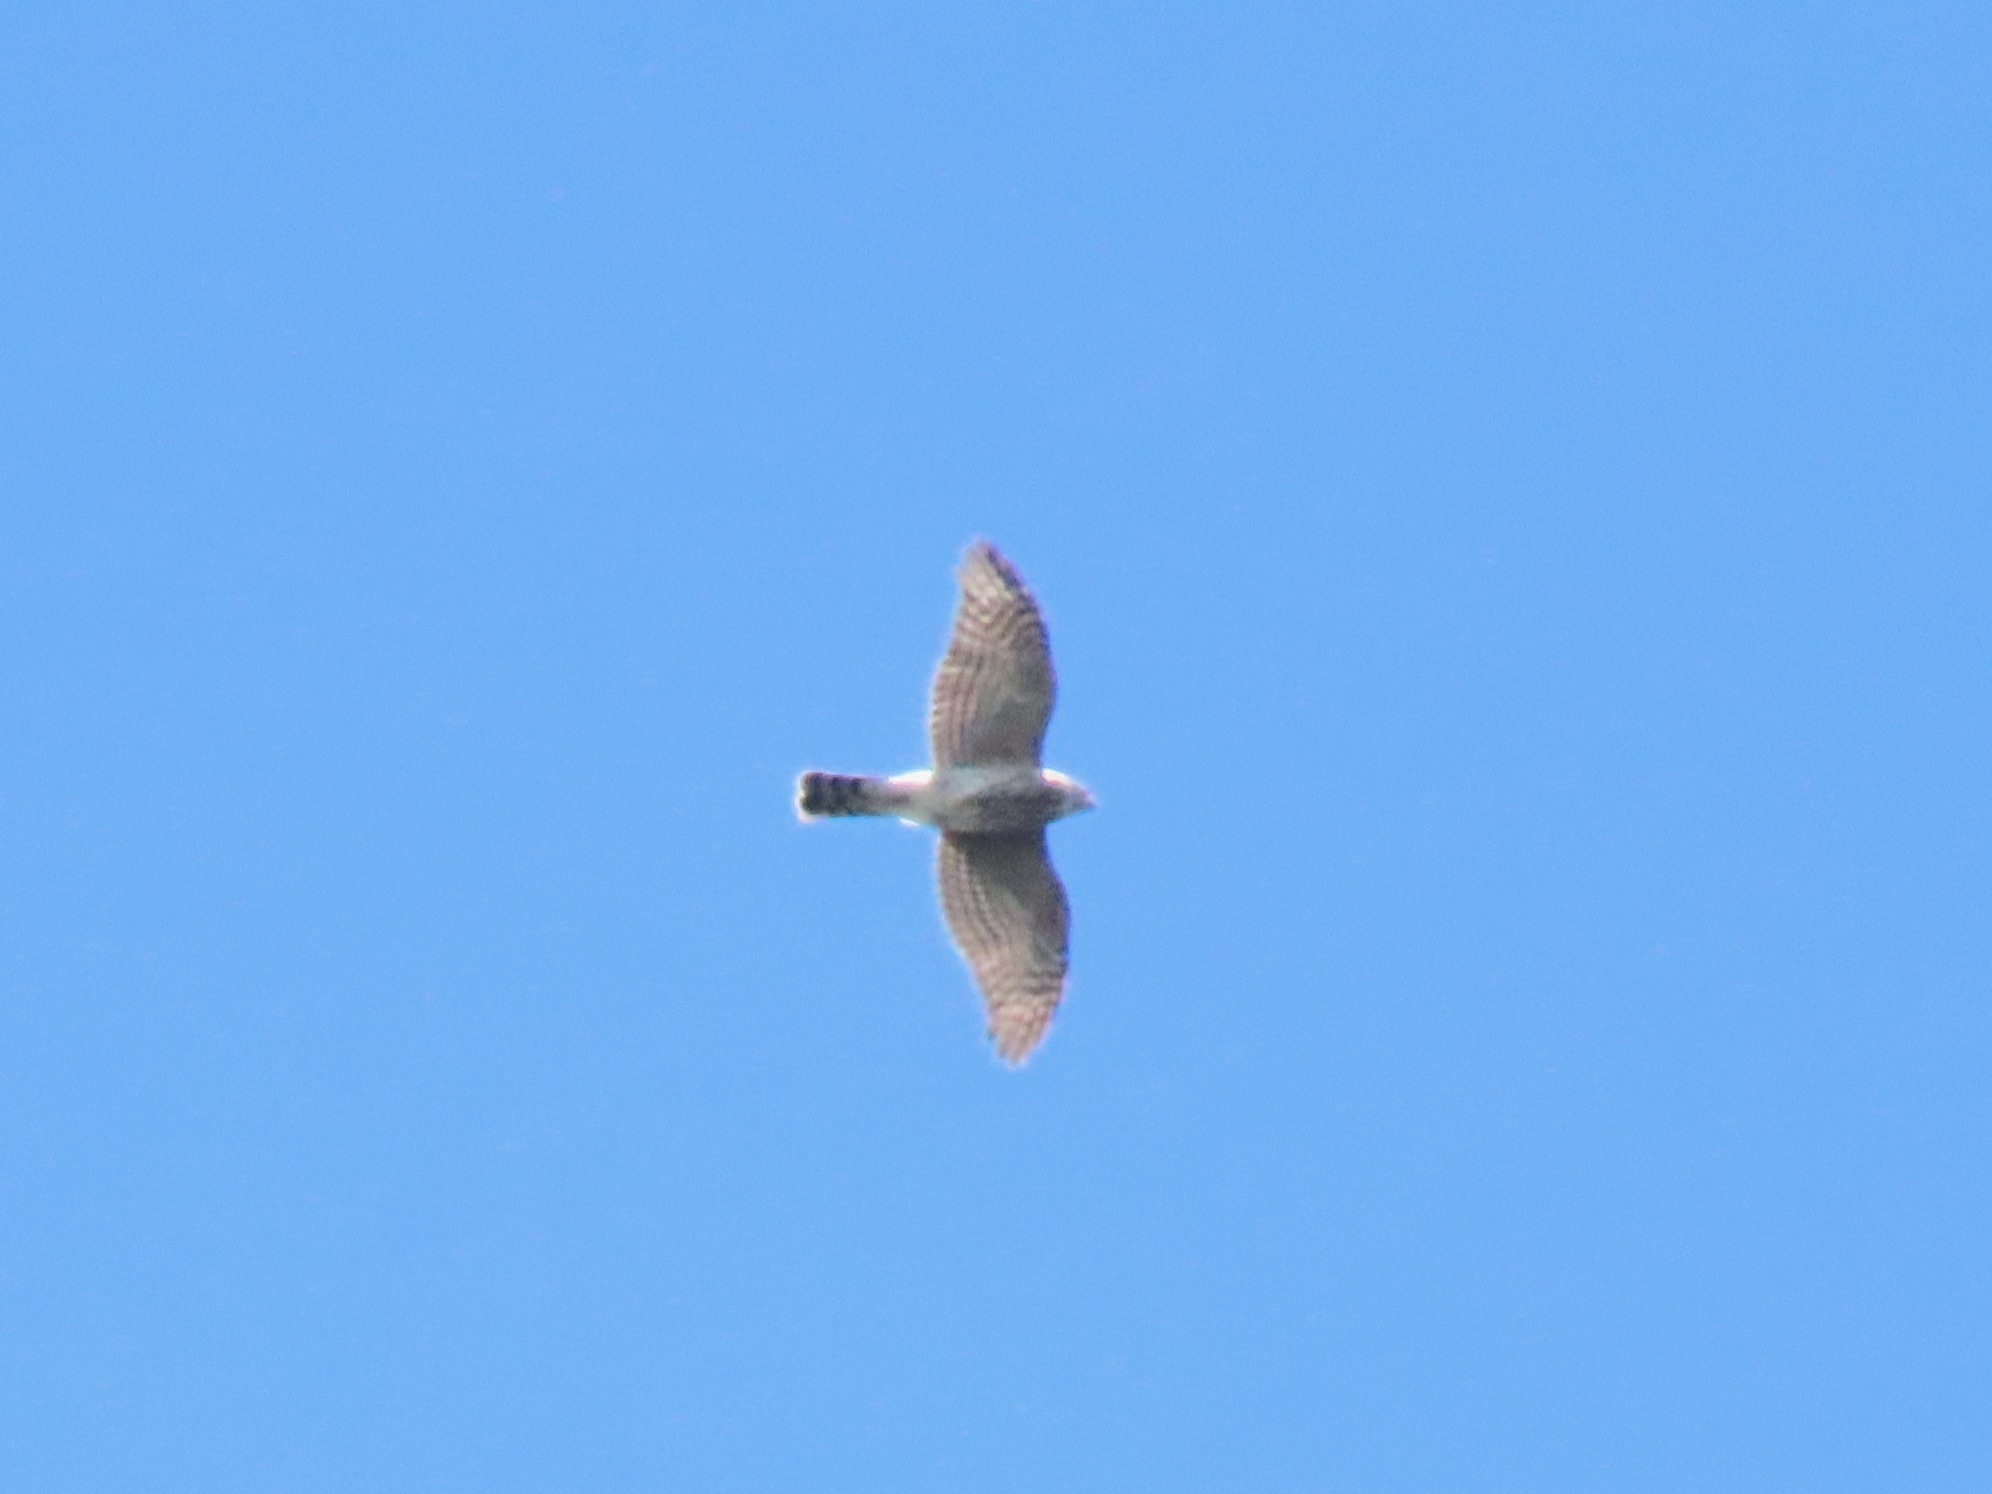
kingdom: Animalia
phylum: Chordata
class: Aves
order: Accipitriformes
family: Accipitridae
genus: Accipiter
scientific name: Accipiter cooperii
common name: Cooper's hawk
